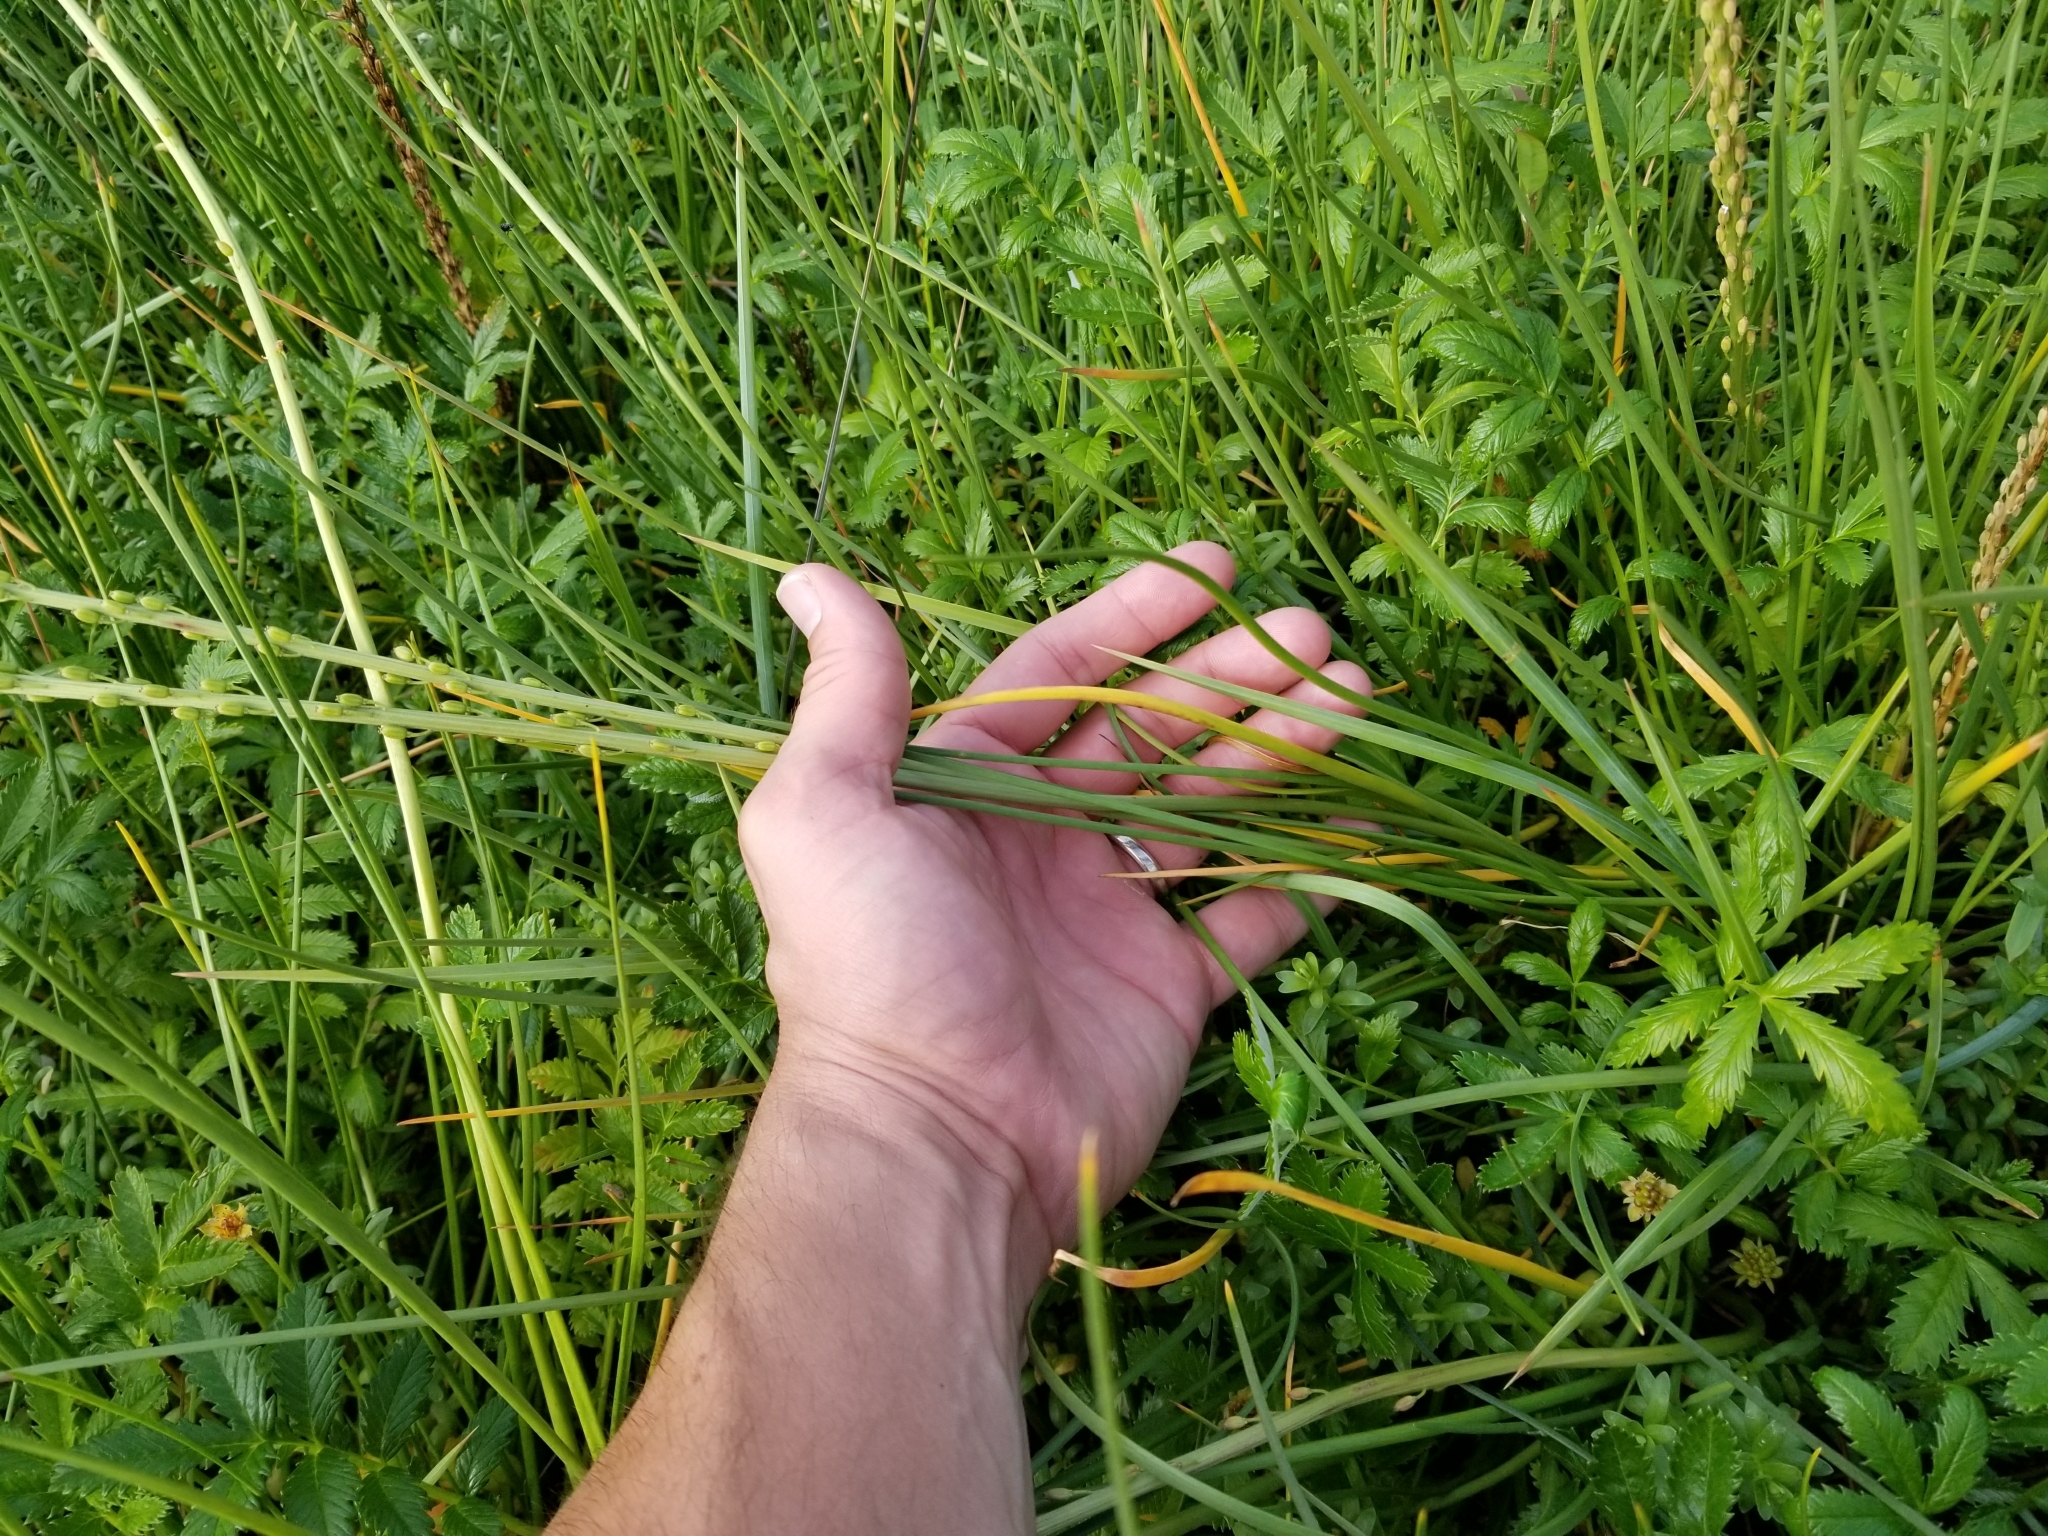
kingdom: Plantae
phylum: Tracheophyta
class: Liliopsida
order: Alismatales
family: Juncaginaceae
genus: Triglochin
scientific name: Triglochin maritima
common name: Sea arrowgrass
